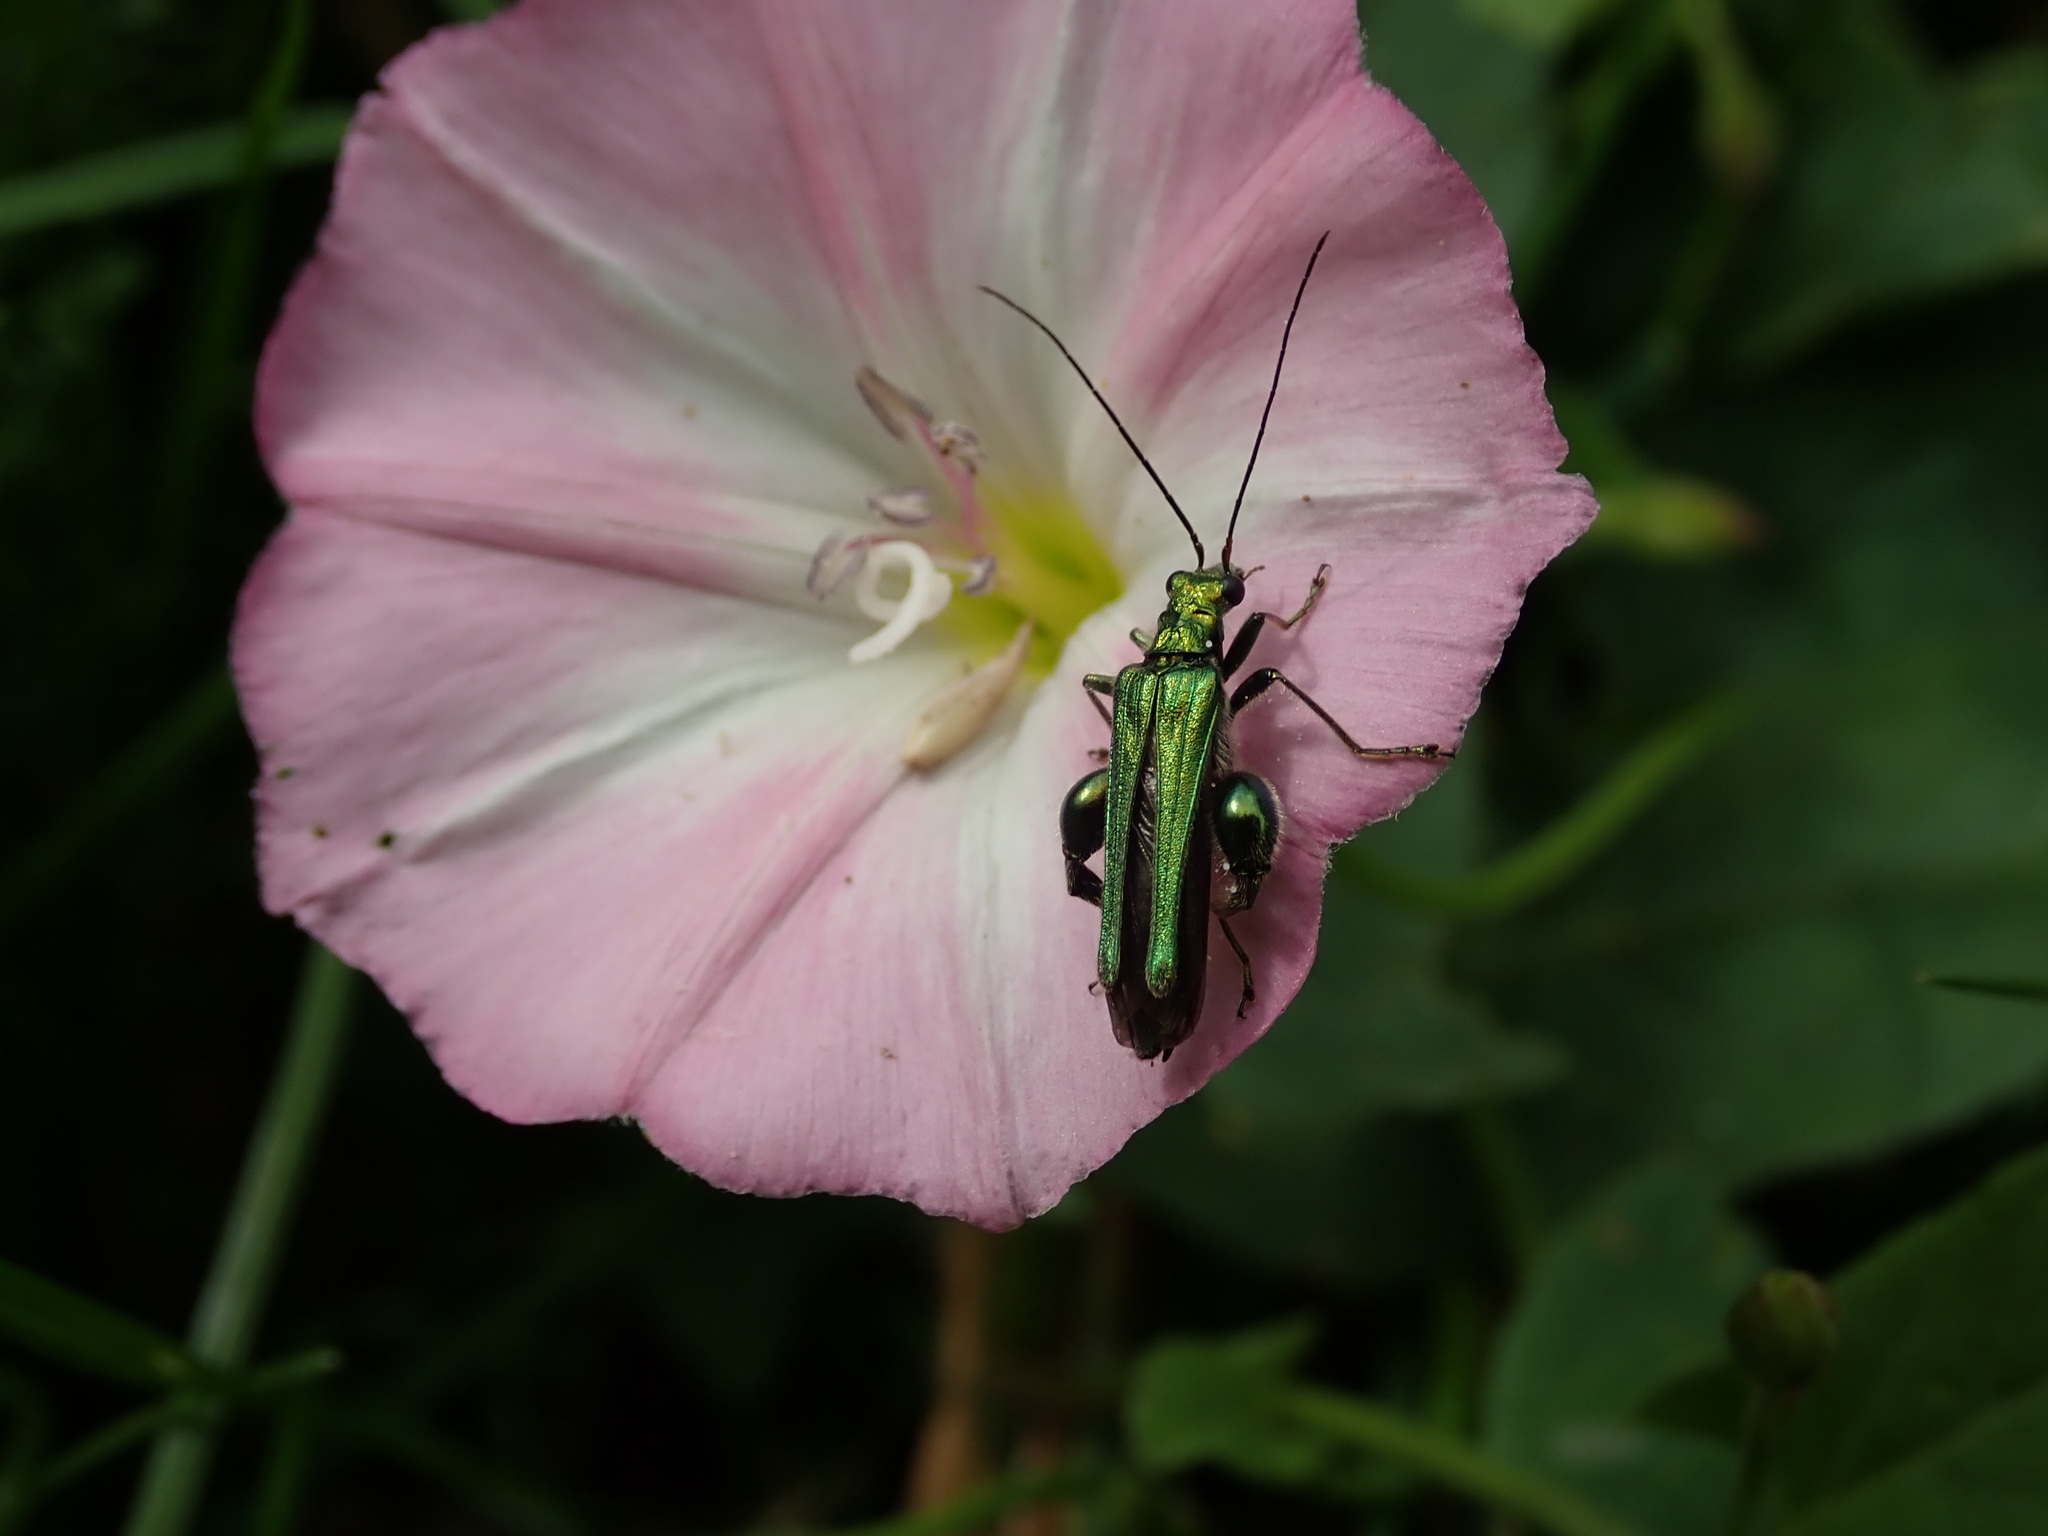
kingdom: Animalia
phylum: Arthropoda
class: Insecta
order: Coleoptera
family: Oedemeridae
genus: Oedemera
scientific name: Oedemera nobilis
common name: Swollen-thighed beetle
